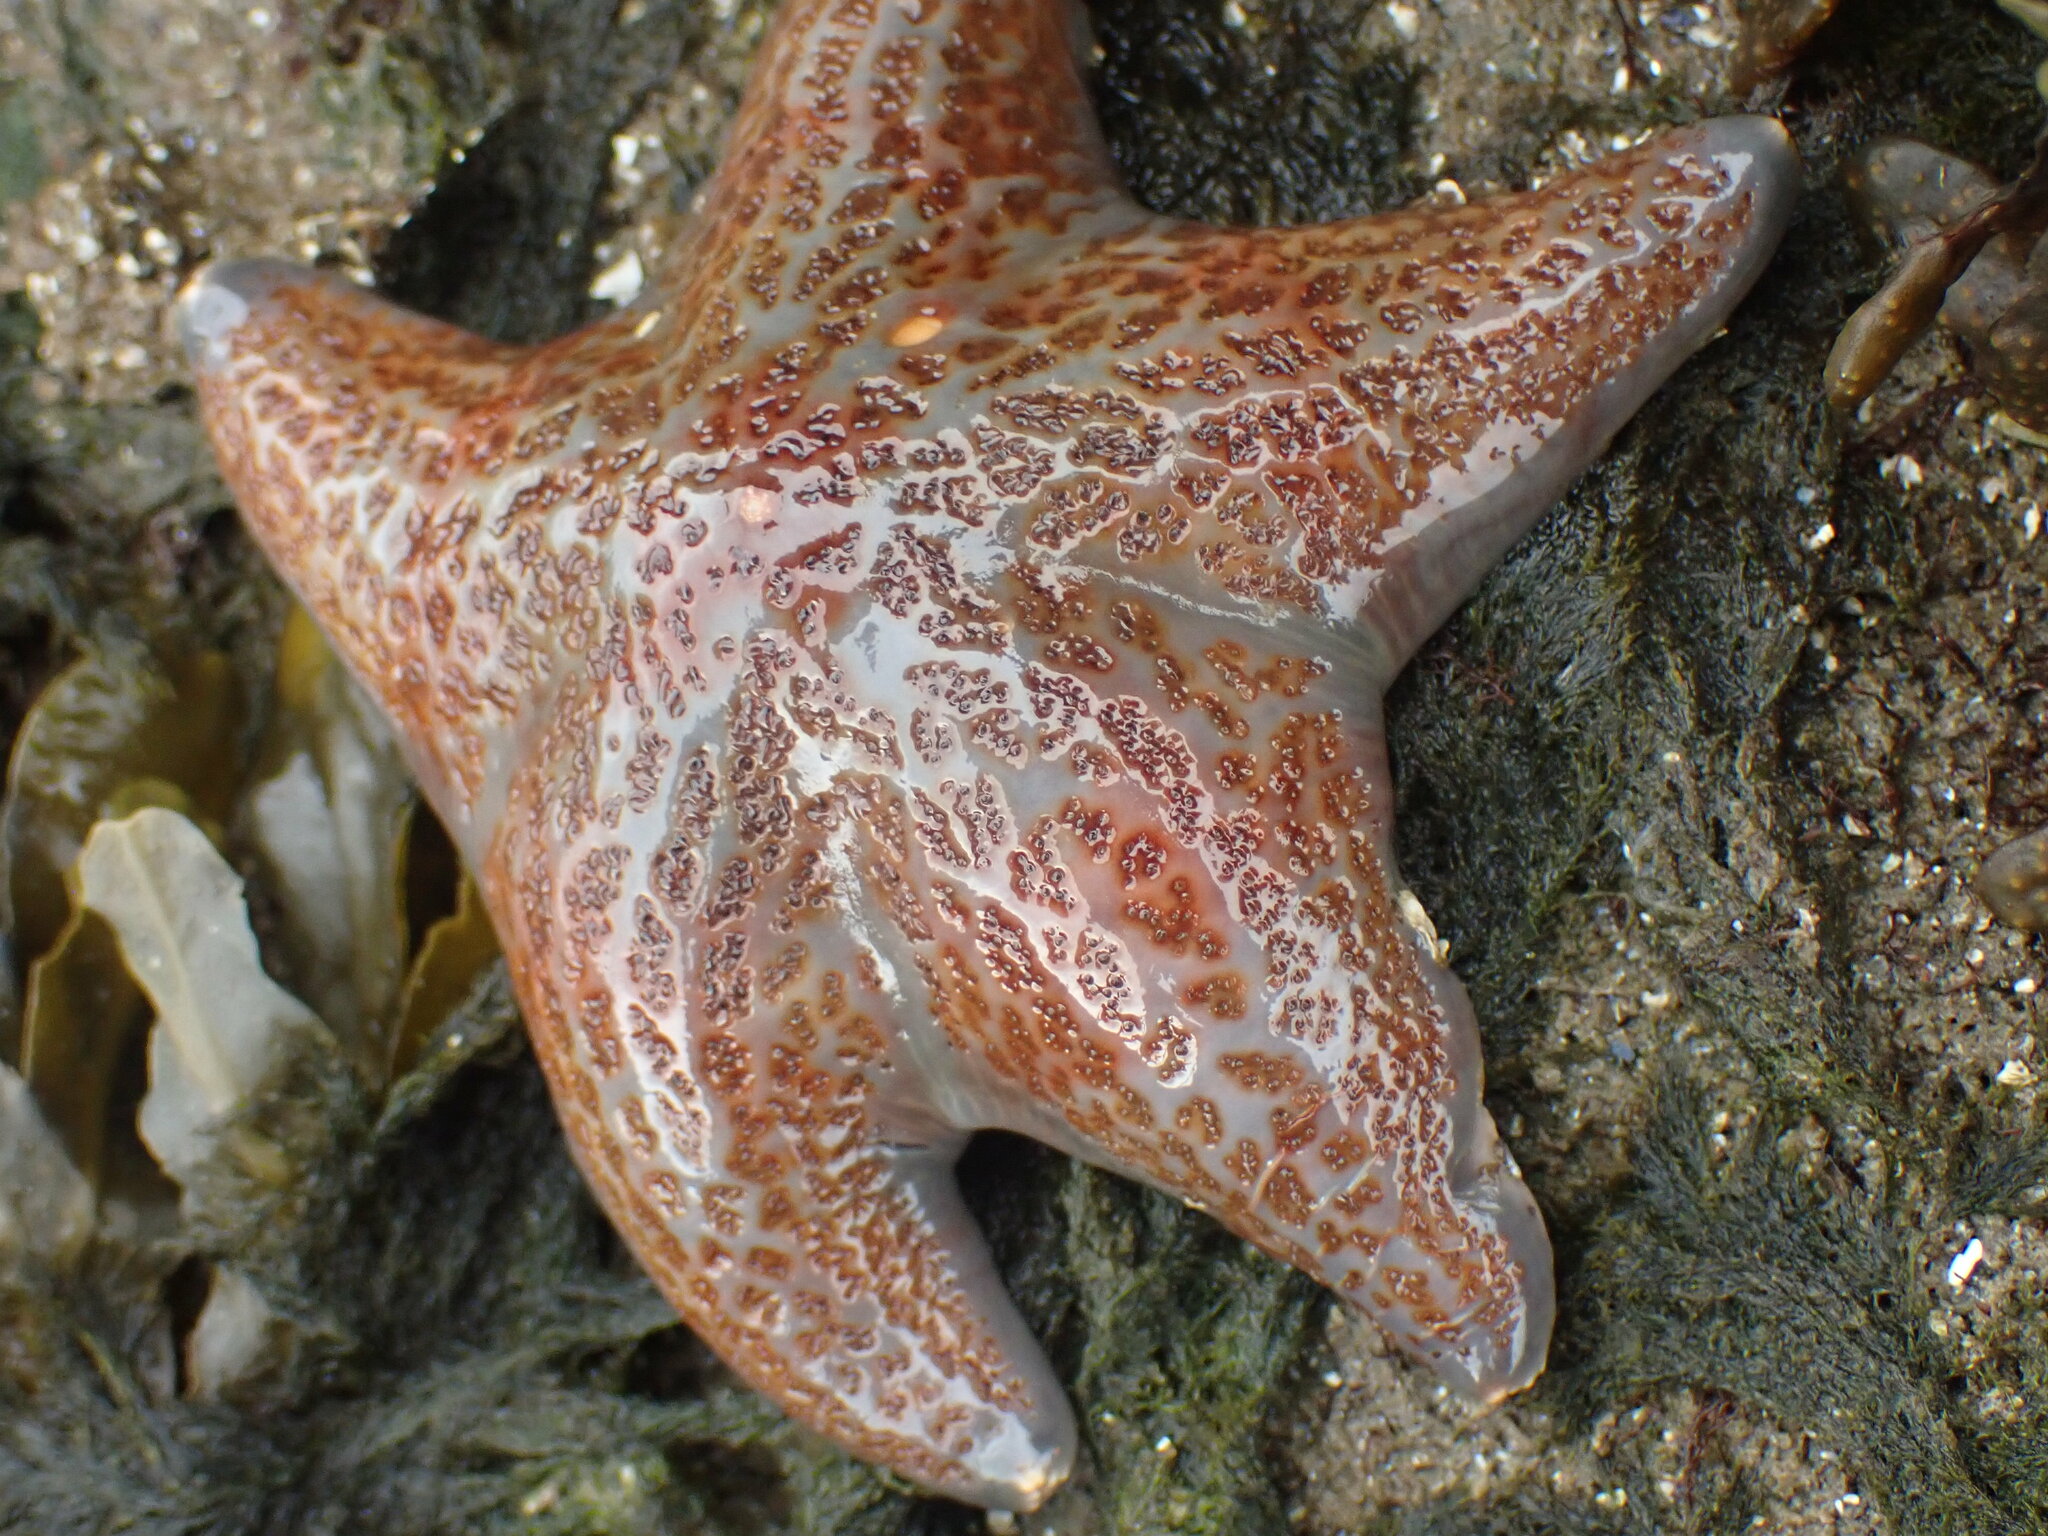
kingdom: Animalia
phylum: Echinodermata
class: Asteroidea
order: Valvatida
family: Asteropseidae
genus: Dermasterias
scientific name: Dermasterias imbricata
